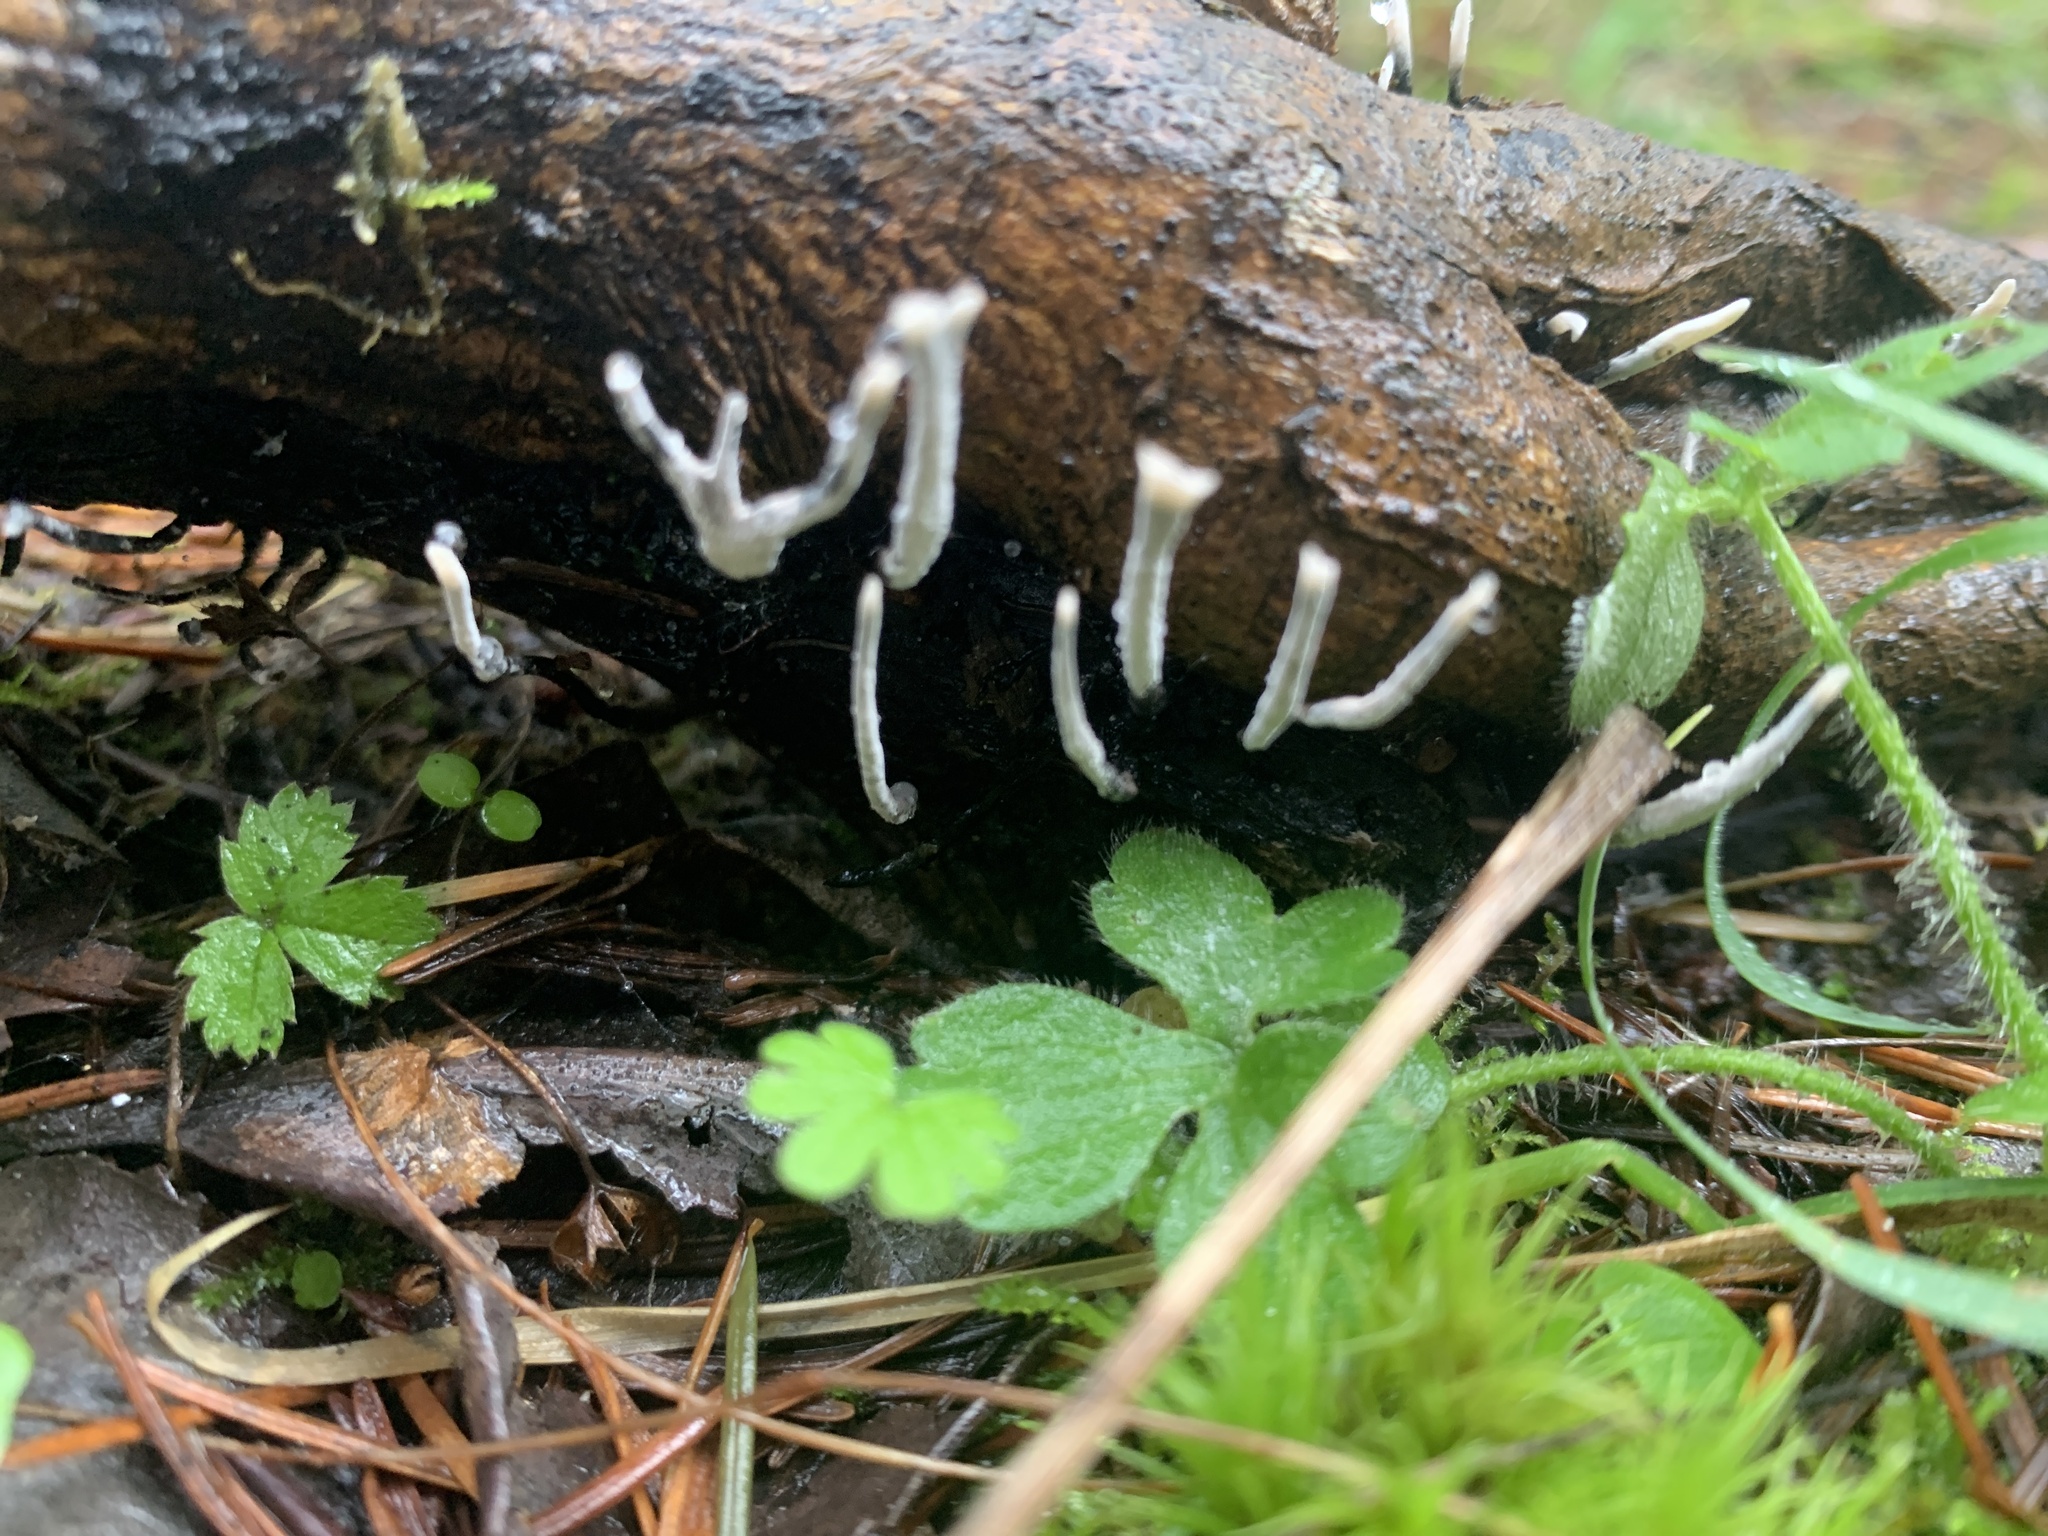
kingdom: Fungi
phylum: Ascomycota
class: Sordariomycetes
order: Xylariales
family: Xylariaceae
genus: Xylaria
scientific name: Xylaria hypoxylon
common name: Candle-snuff fungus
